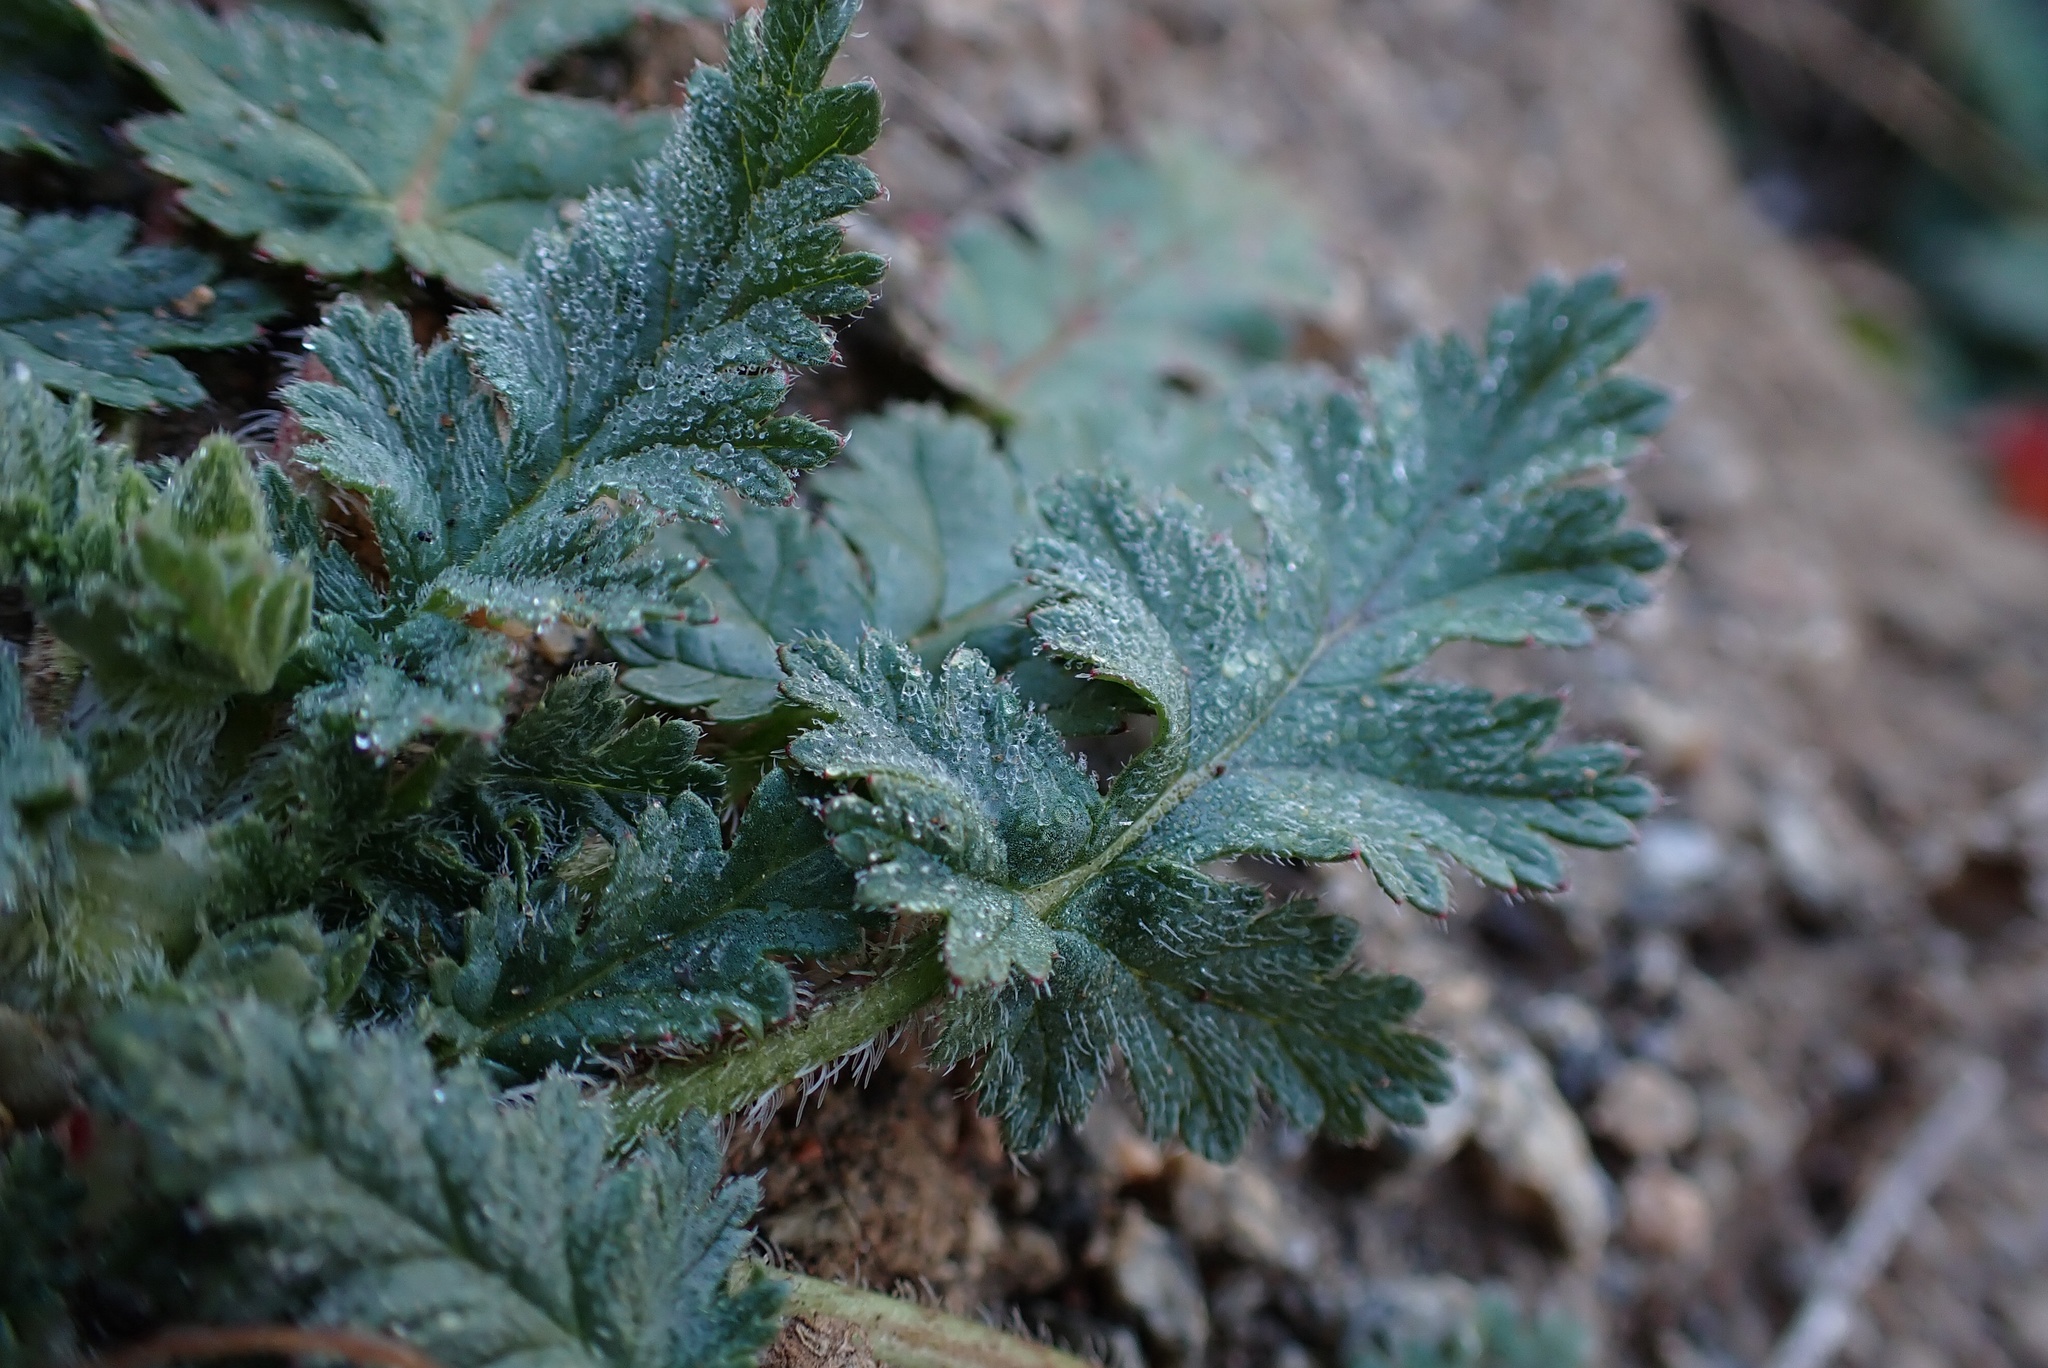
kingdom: Plantae
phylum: Tracheophyta
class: Magnoliopsida
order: Geraniales
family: Geraniaceae
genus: Erodium
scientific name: Erodium brachycarpum
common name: Hairy-pitted stork's-bill
